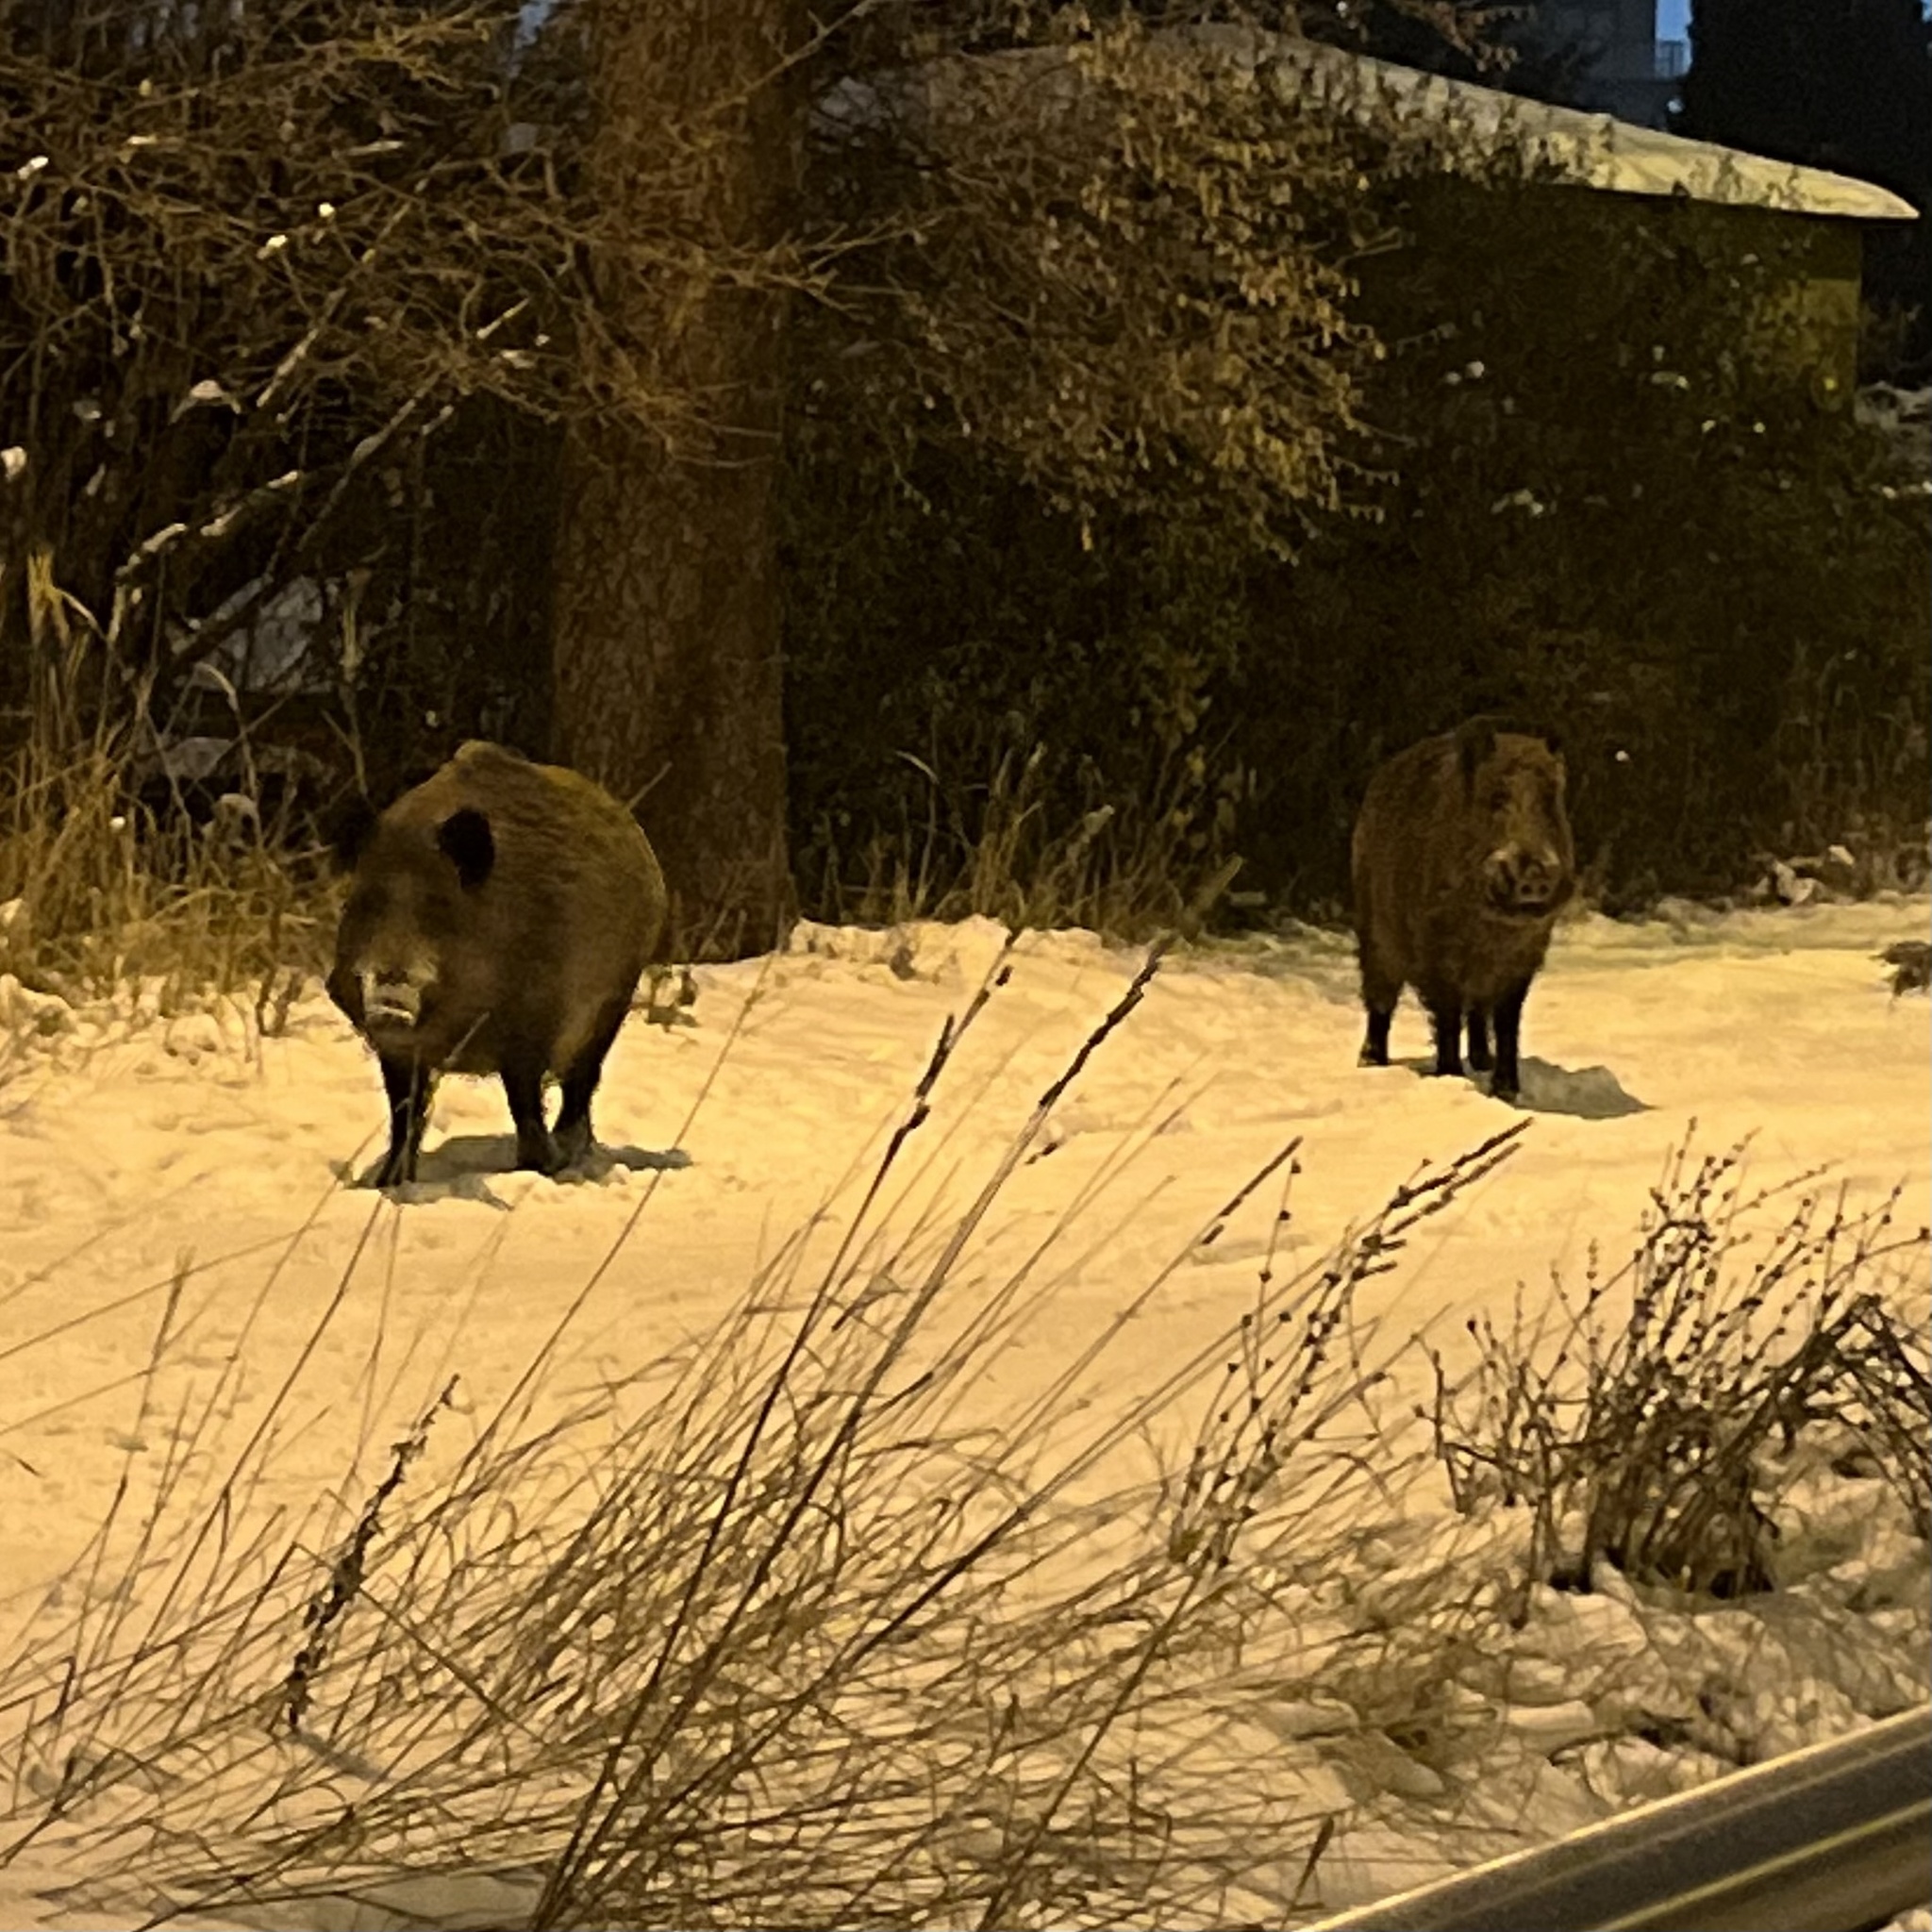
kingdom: Animalia
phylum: Chordata
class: Mammalia
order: Artiodactyla
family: Suidae
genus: Sus
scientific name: Sus scrofa
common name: Wild boar
